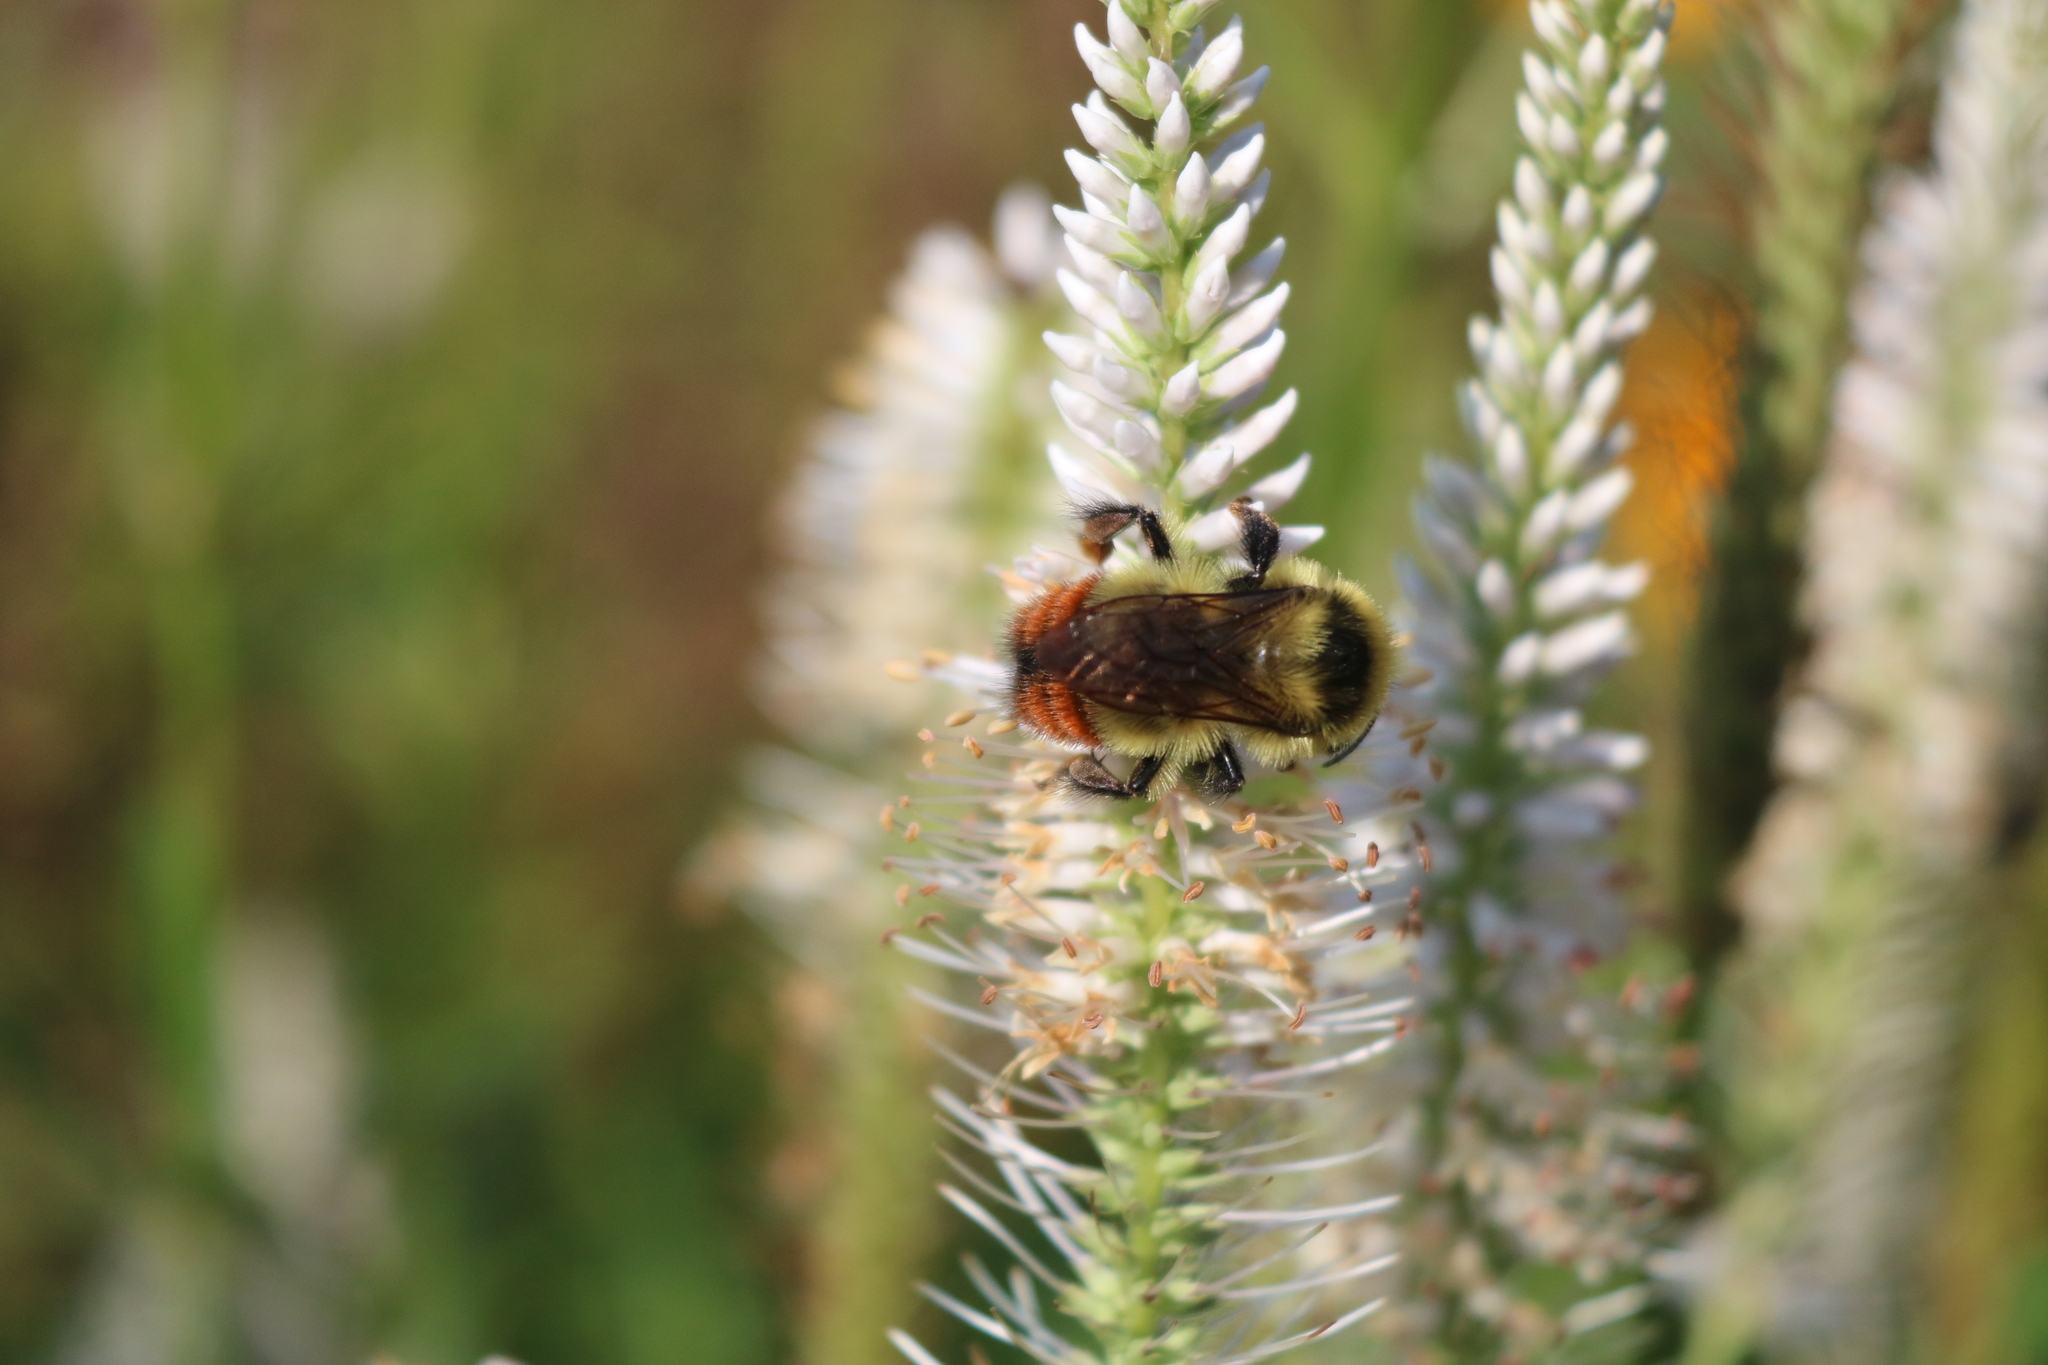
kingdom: Animalia
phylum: Arthropoda
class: Insecta
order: Hymenoptera
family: Apidae
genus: Bombus
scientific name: Bombus rufocinctus
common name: Red-belted bumble bee
